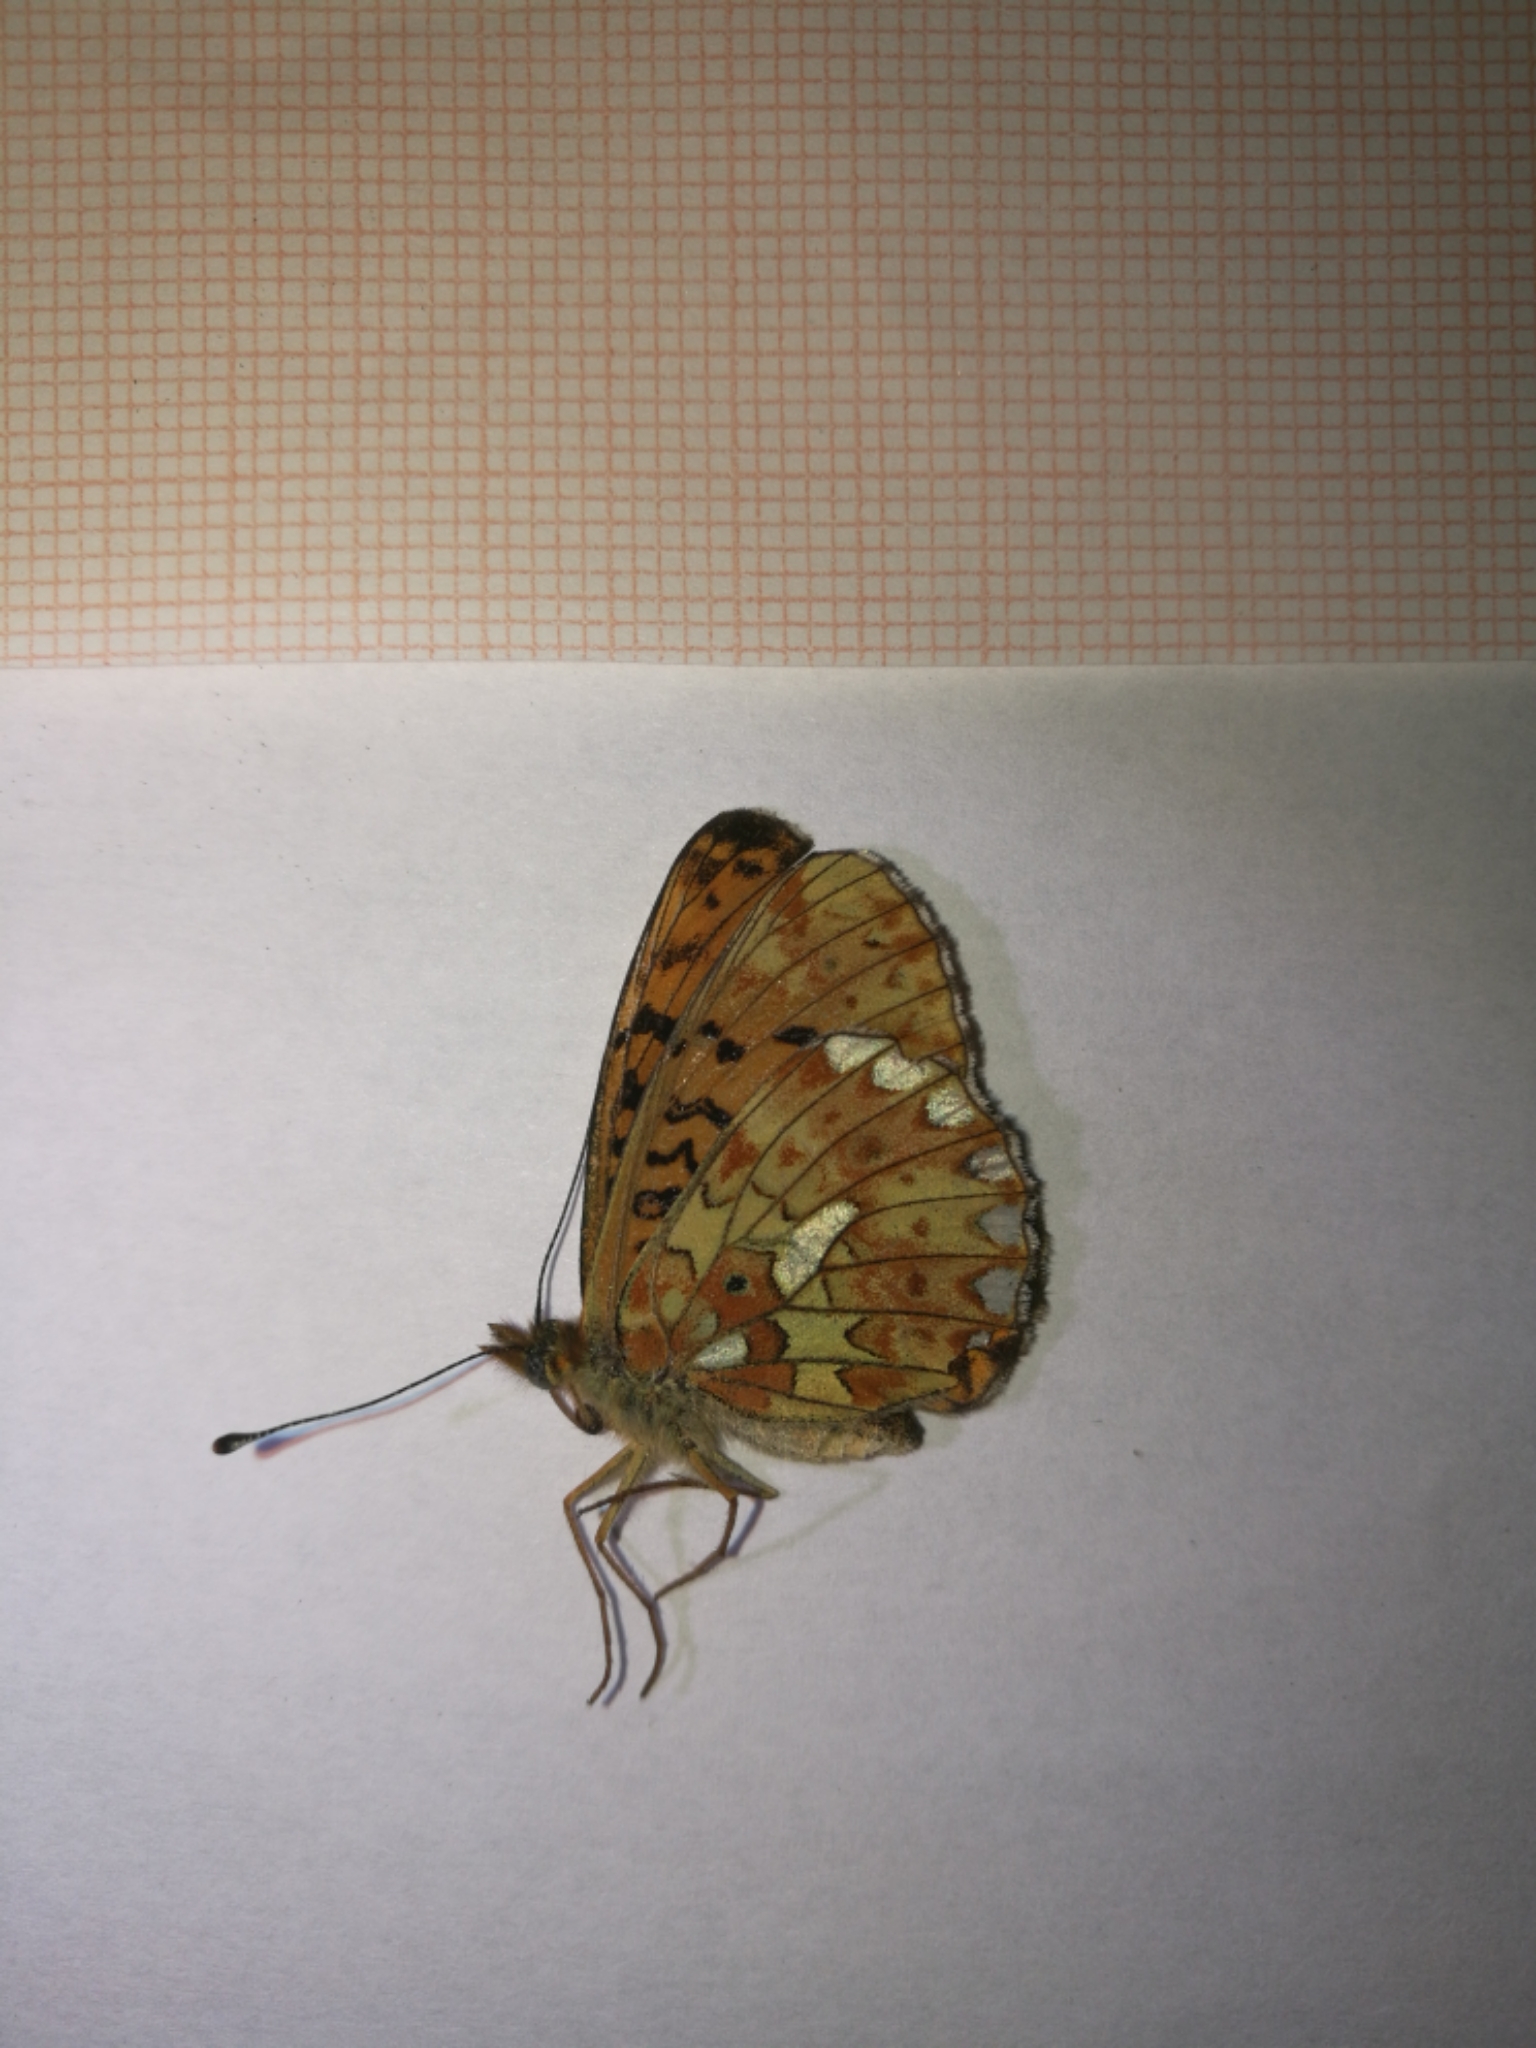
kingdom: Animalia
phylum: Arthropoda
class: Insecta
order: Lepidoptera
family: Nymphalidae
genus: Clossiana
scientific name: Clossiana euphrosyne
